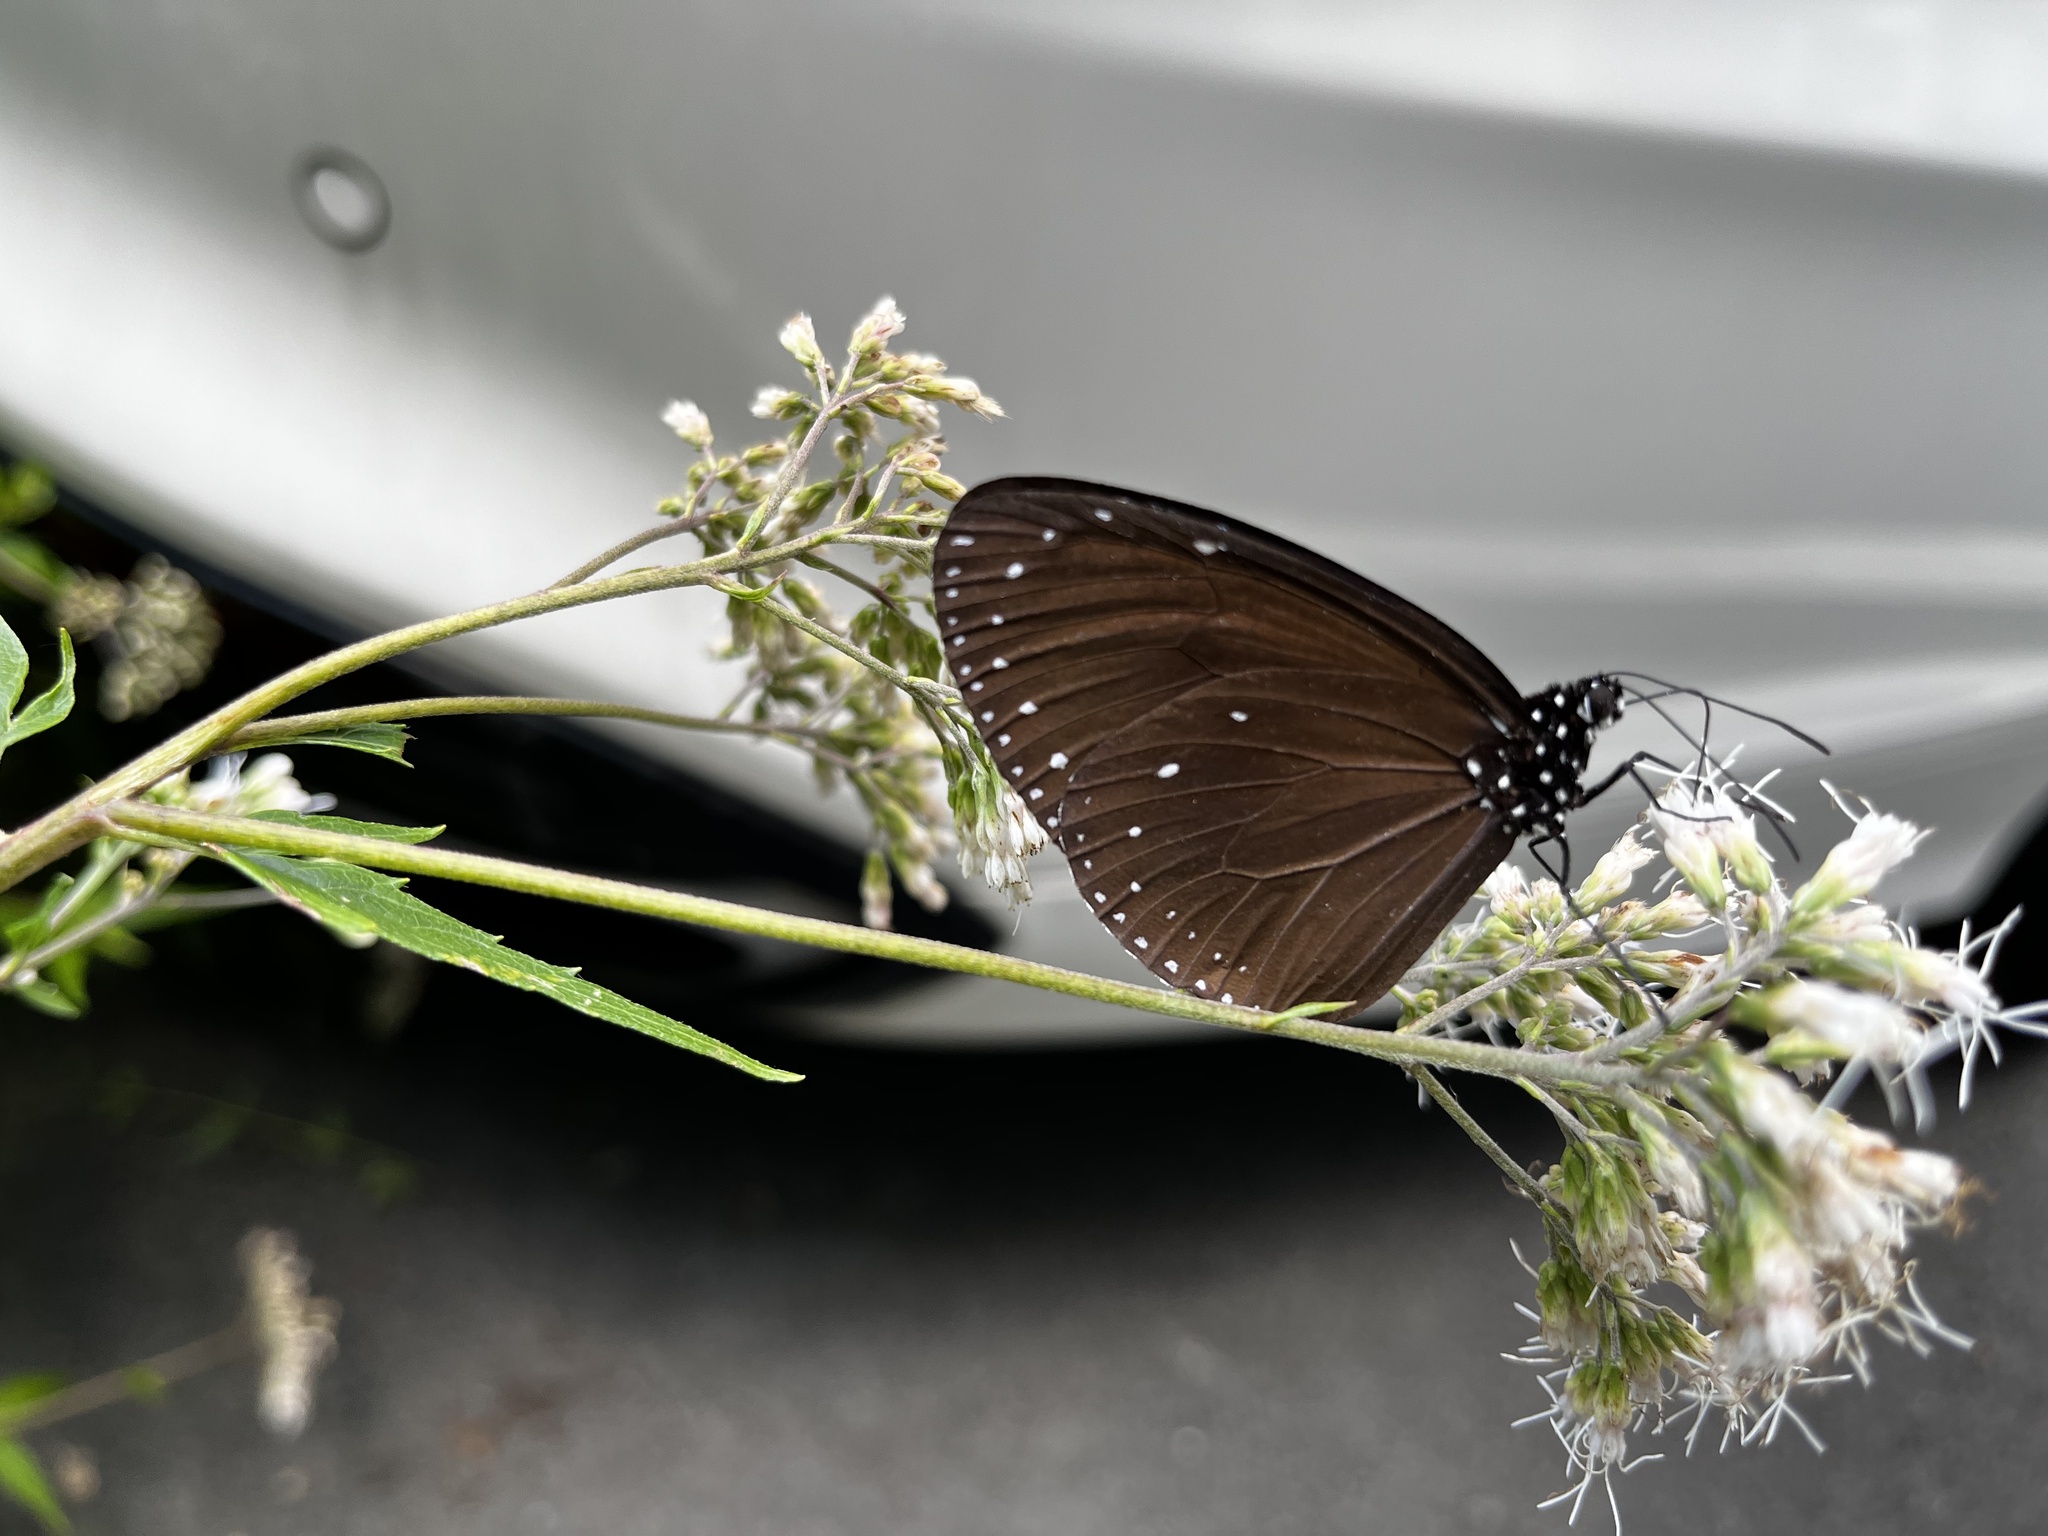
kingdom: Animalia
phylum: Arthropoda
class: Insecta
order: Lepidoptera
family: Nymphalidae
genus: Euploea
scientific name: Euploea tulliolus
